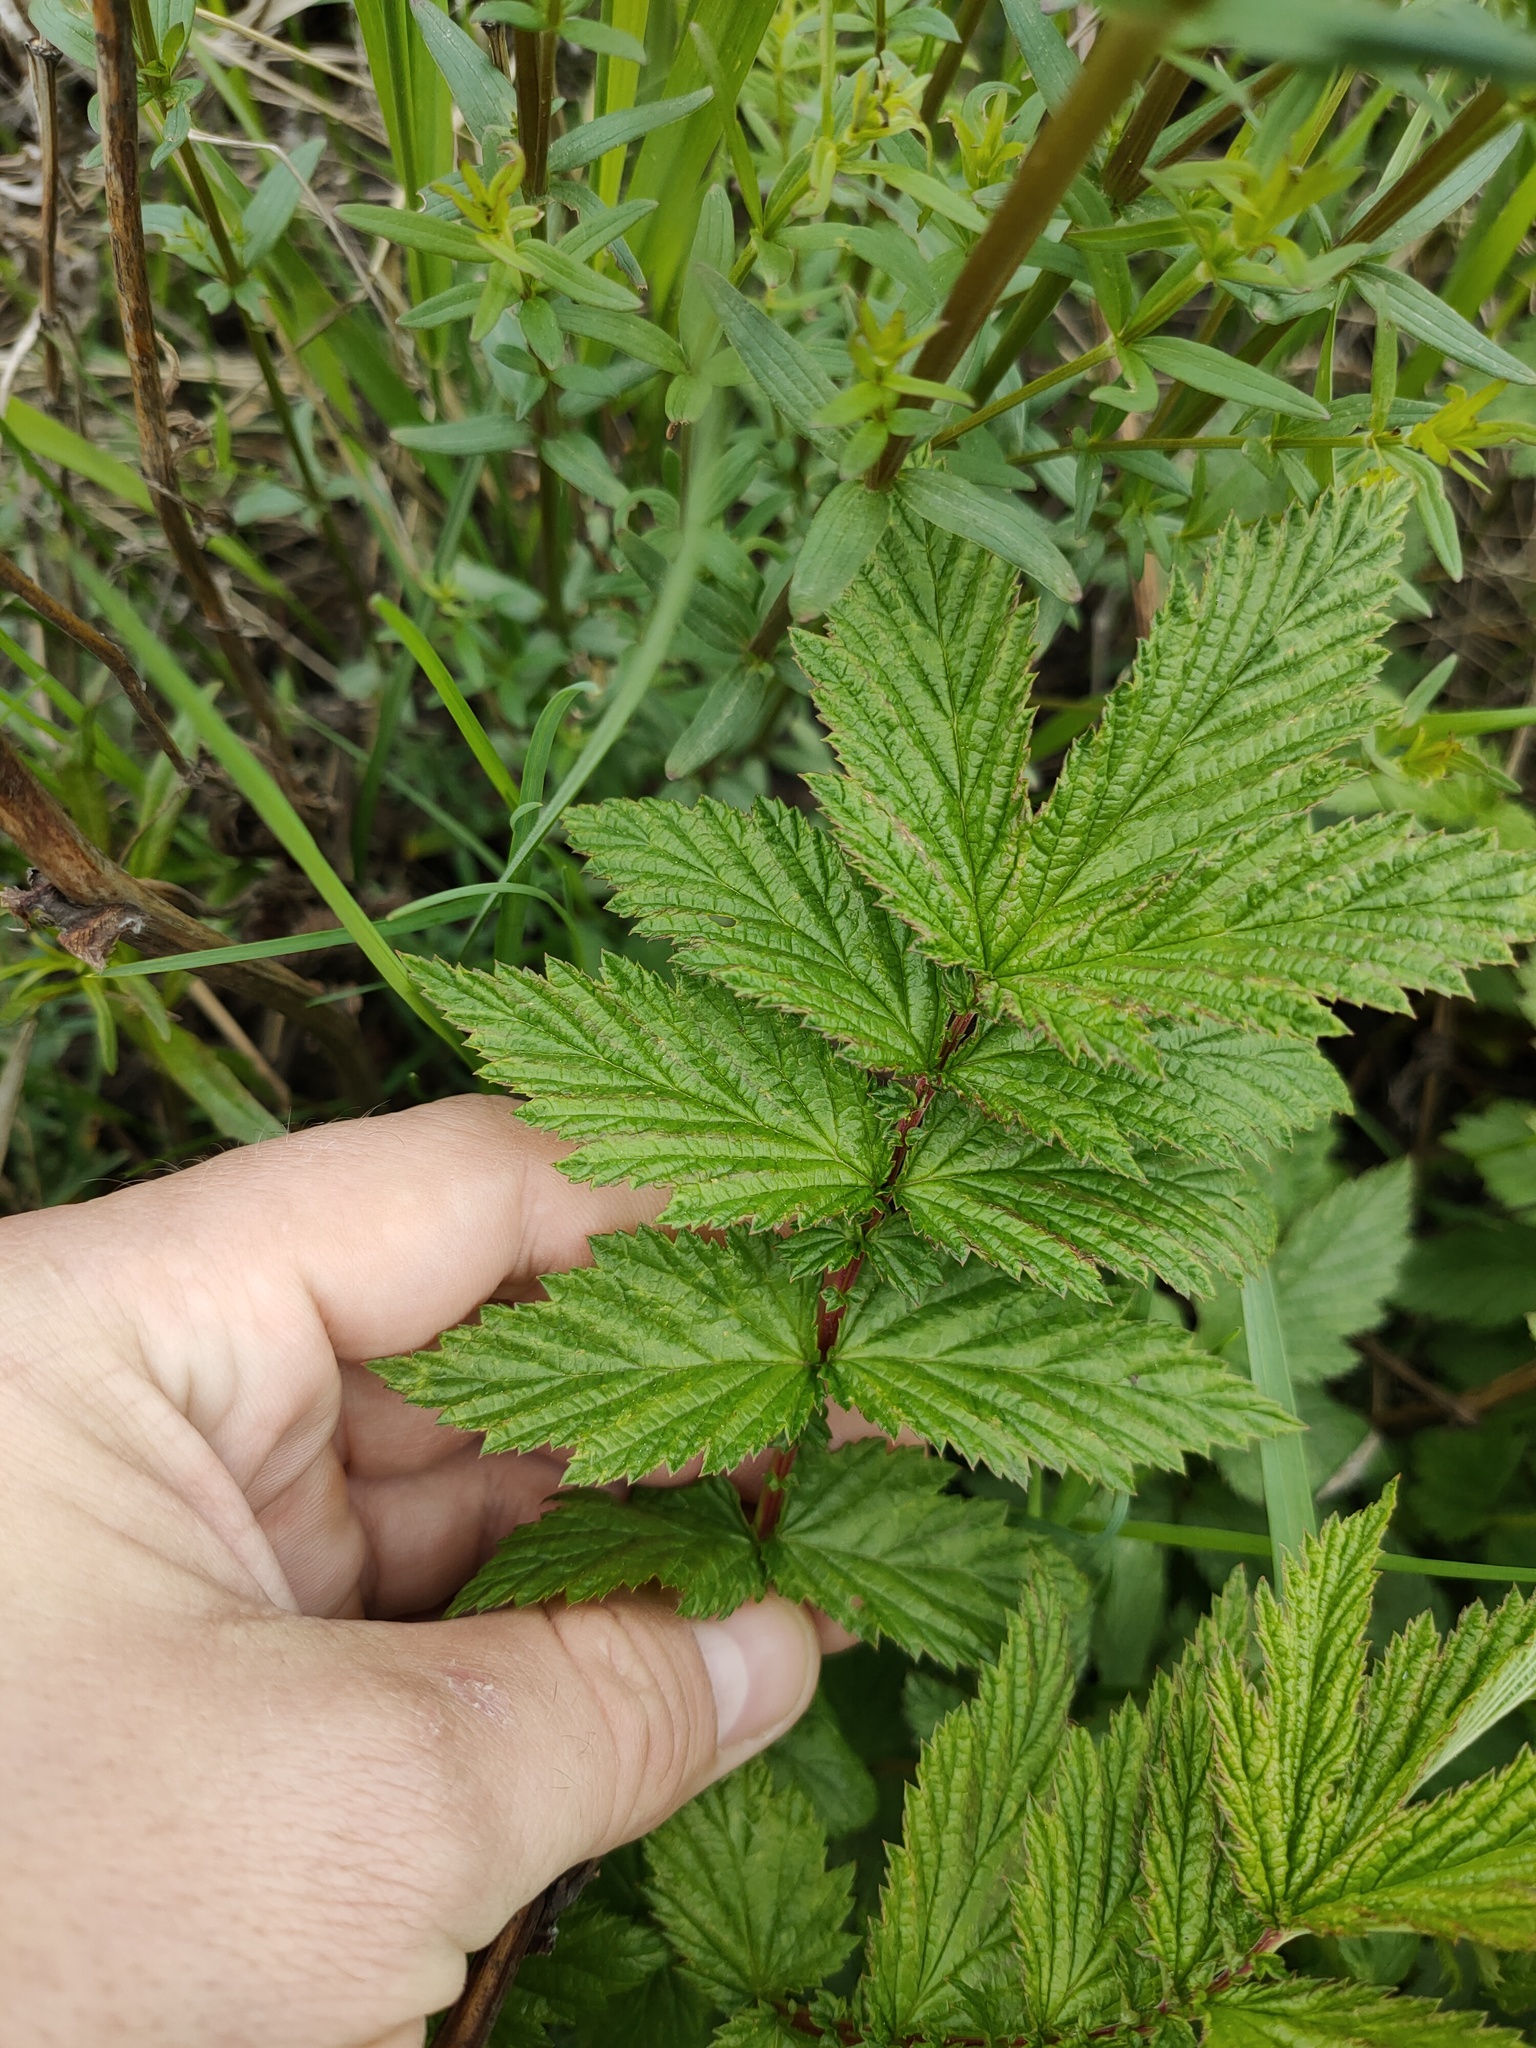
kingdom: Plantae
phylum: Tracheophyta
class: Magnoliopsida
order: Rosales
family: Rosaceae
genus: Filipendula
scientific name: Filipendula ulmaria
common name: Meadowsweet
